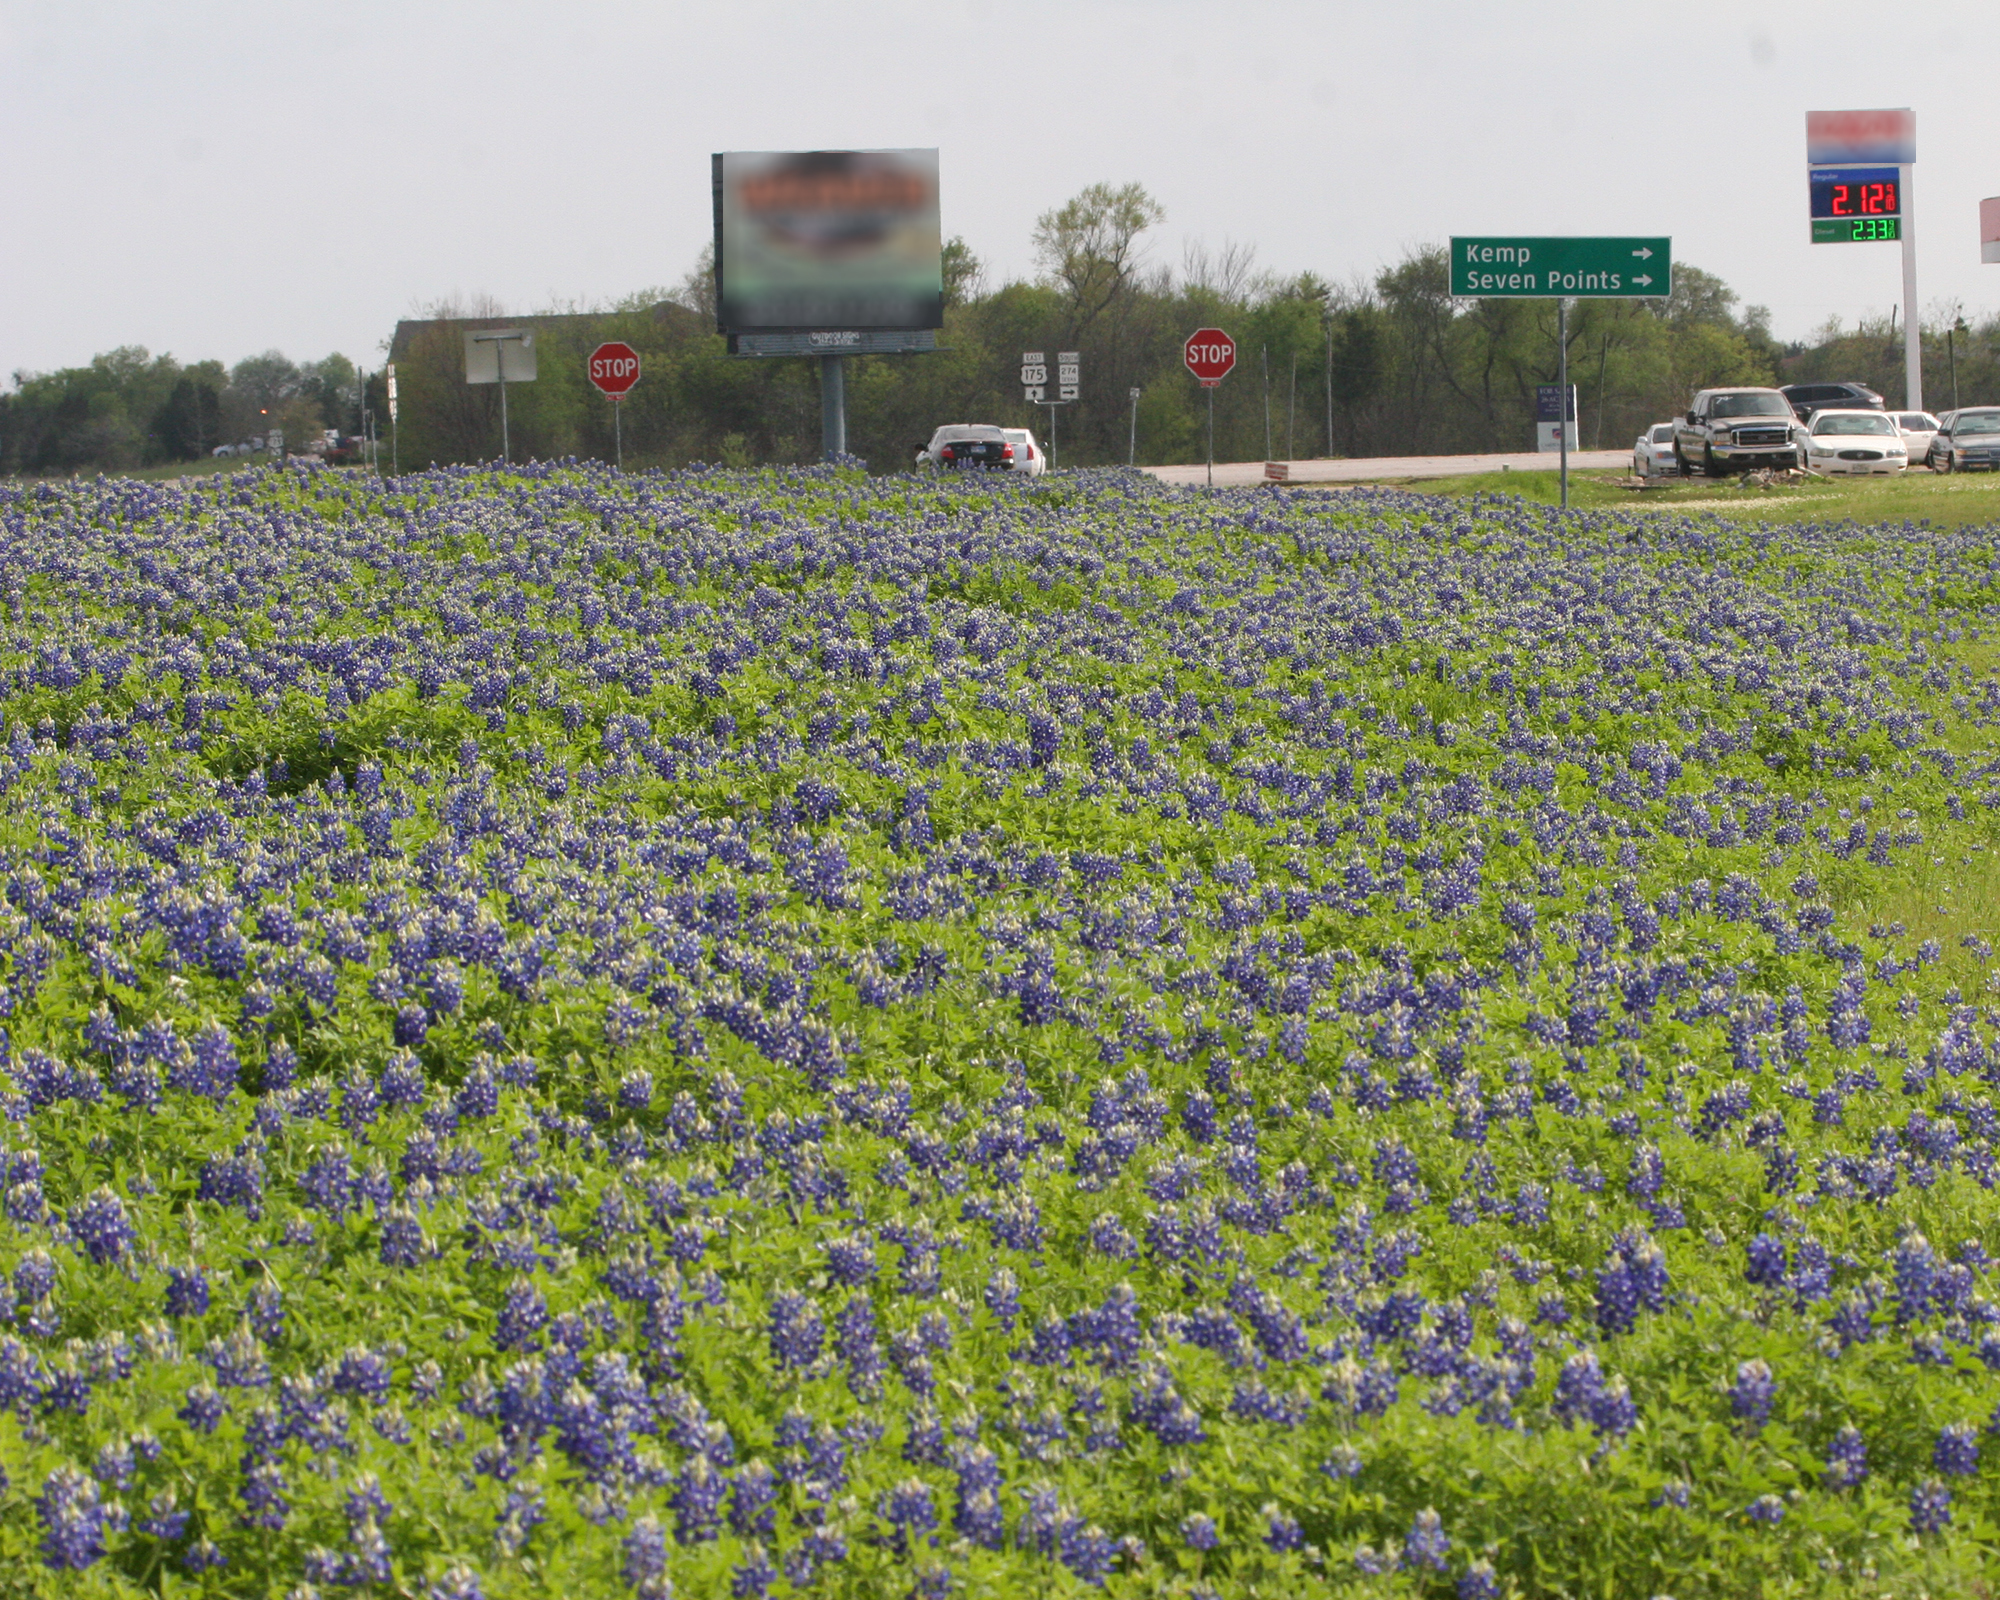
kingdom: Plantae
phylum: Tracheophyta
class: Magnoliopsida
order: Fabales
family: Fabaceae
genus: Lupinus
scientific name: Lupinus texensis
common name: Texas bluebonnet
